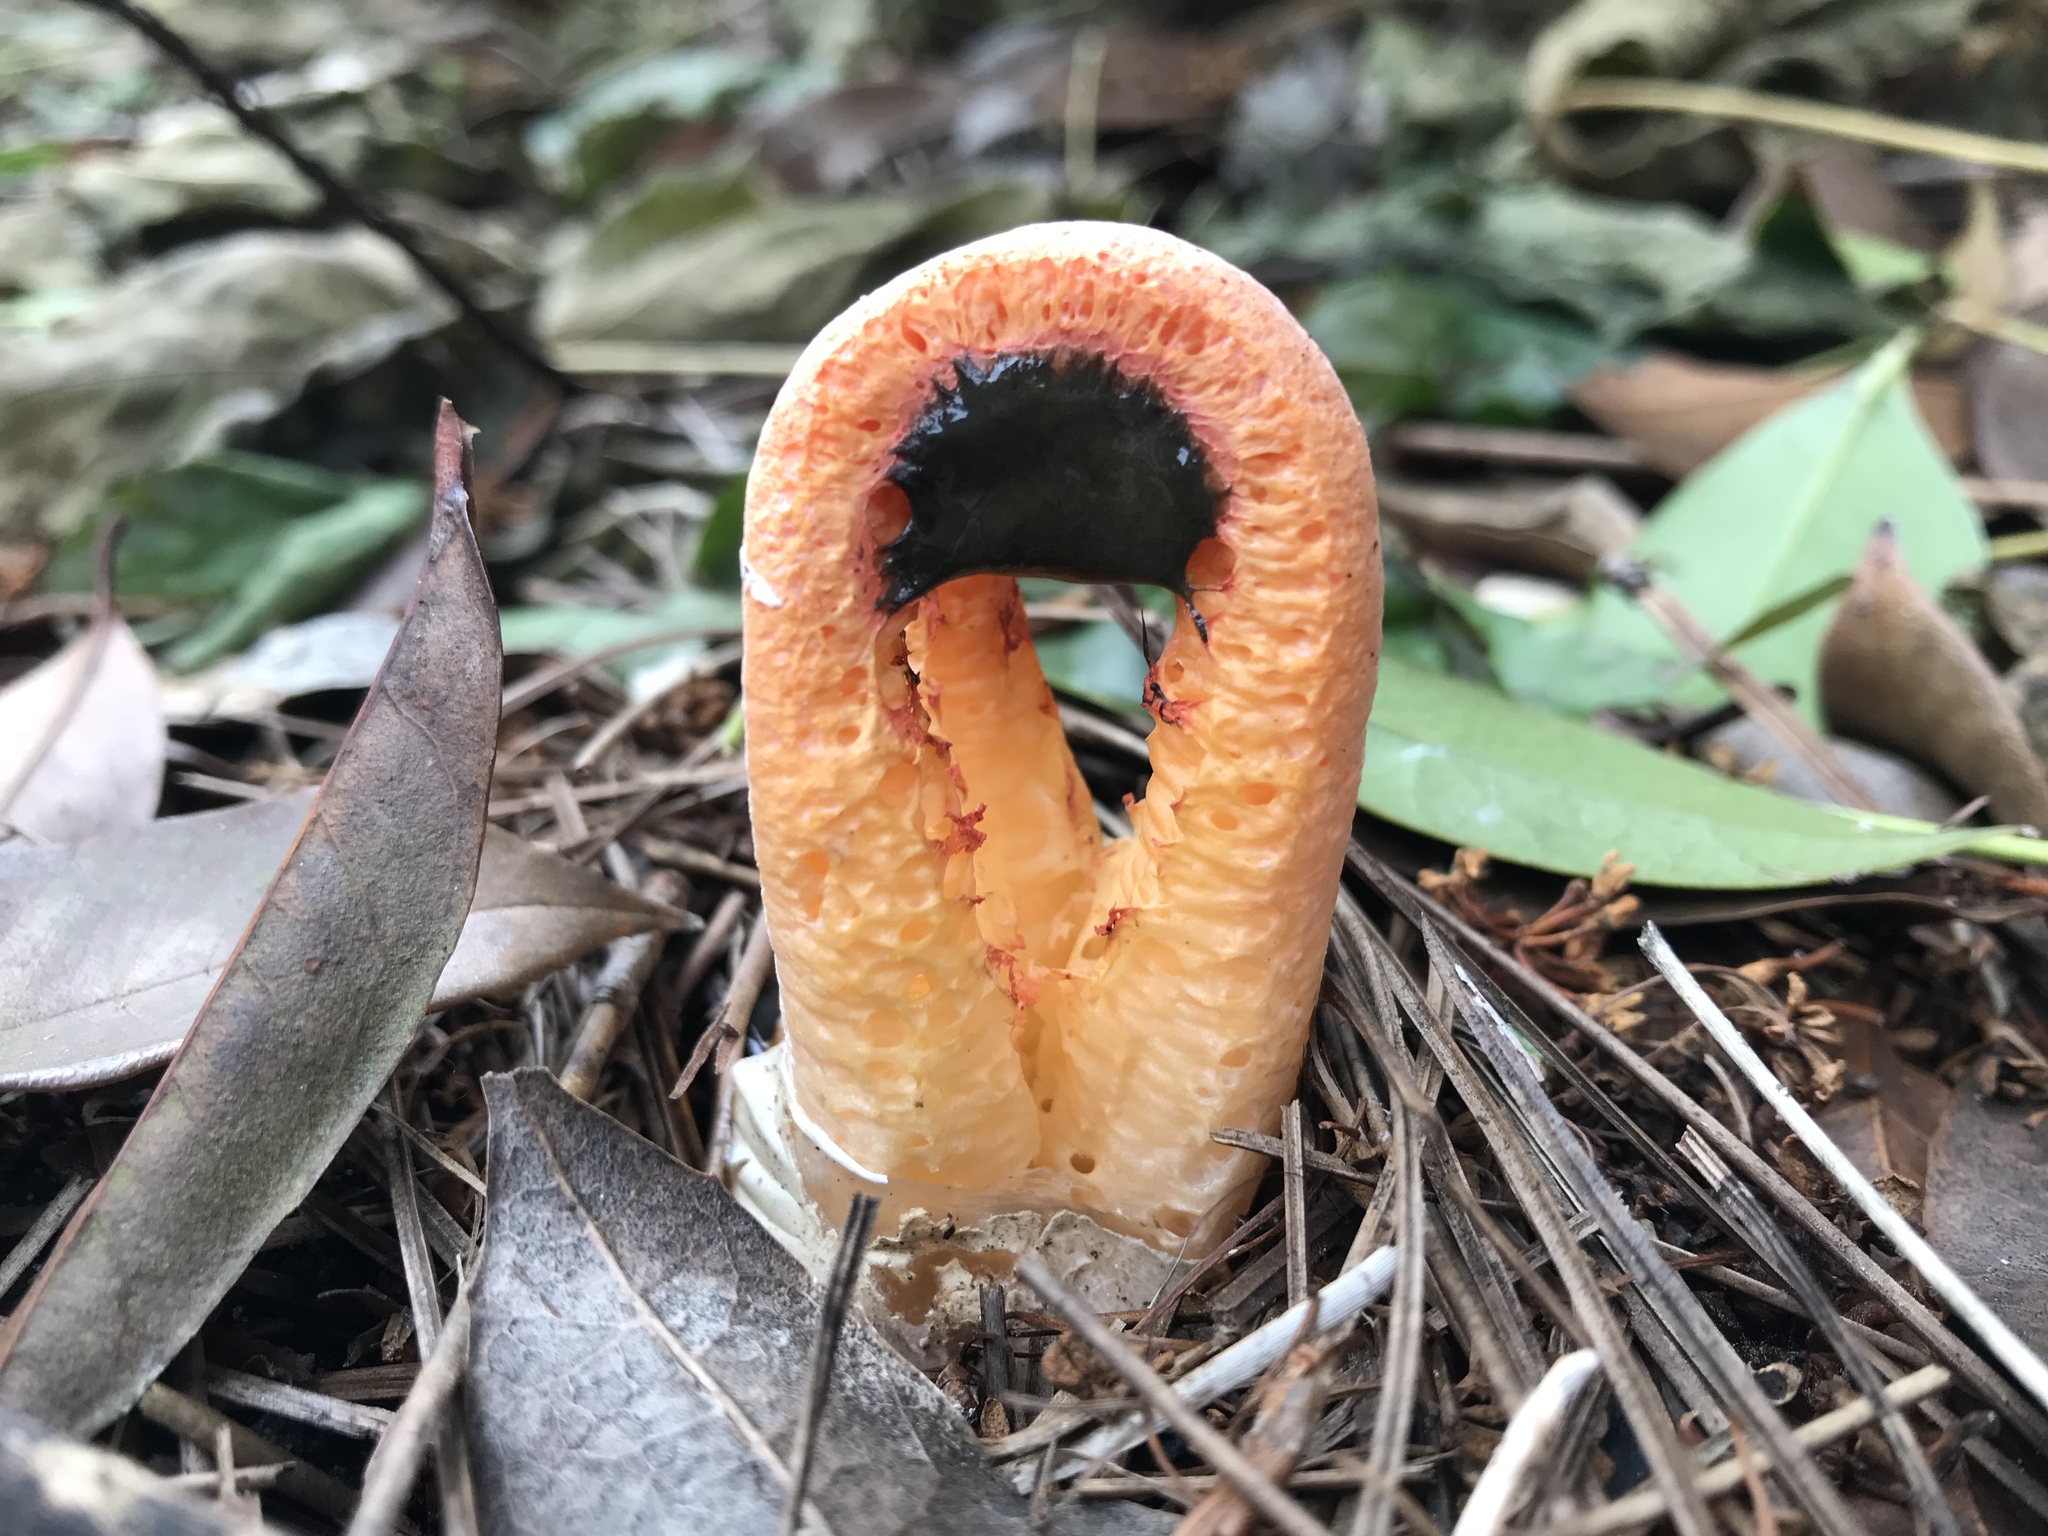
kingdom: Fungi
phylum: Basidiomycota
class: Agaricomycetes
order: Phallales
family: Phallaceae
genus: Clathrus
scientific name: Clathrus columnatus
